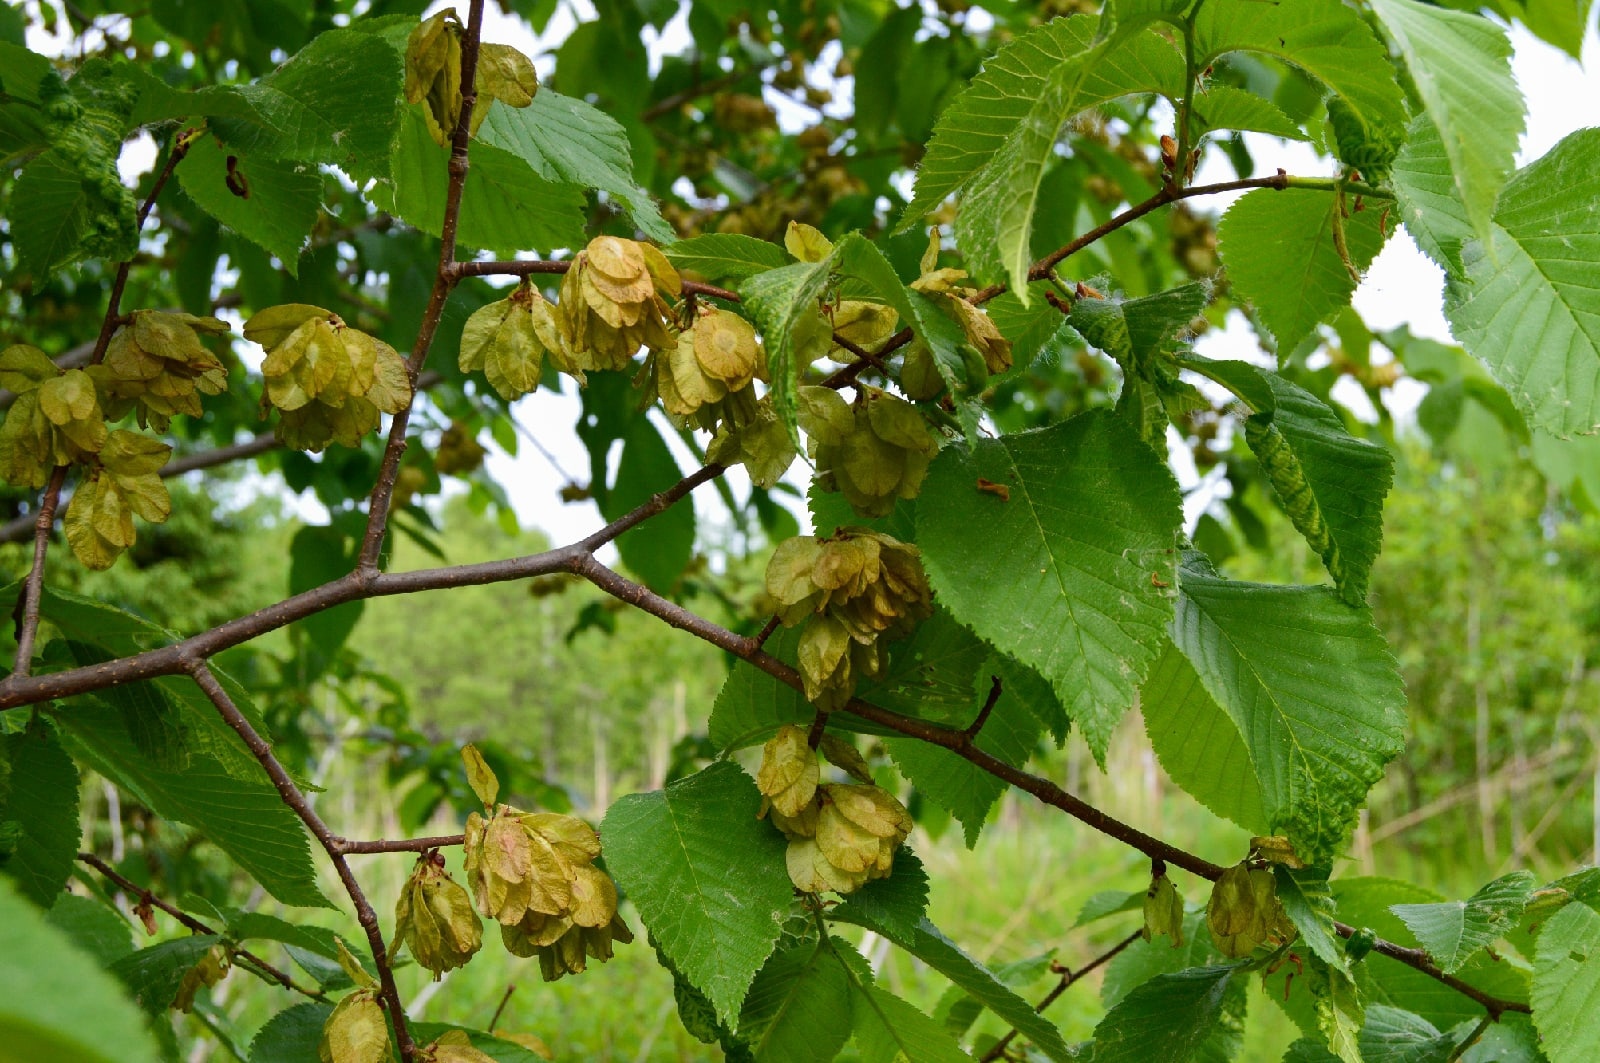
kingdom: Plantae
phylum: Tracheophyta
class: Magnoliopsida
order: Rosales
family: Ulmaceae
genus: Ulmus
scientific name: Ulmus glabra
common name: Wych elm
